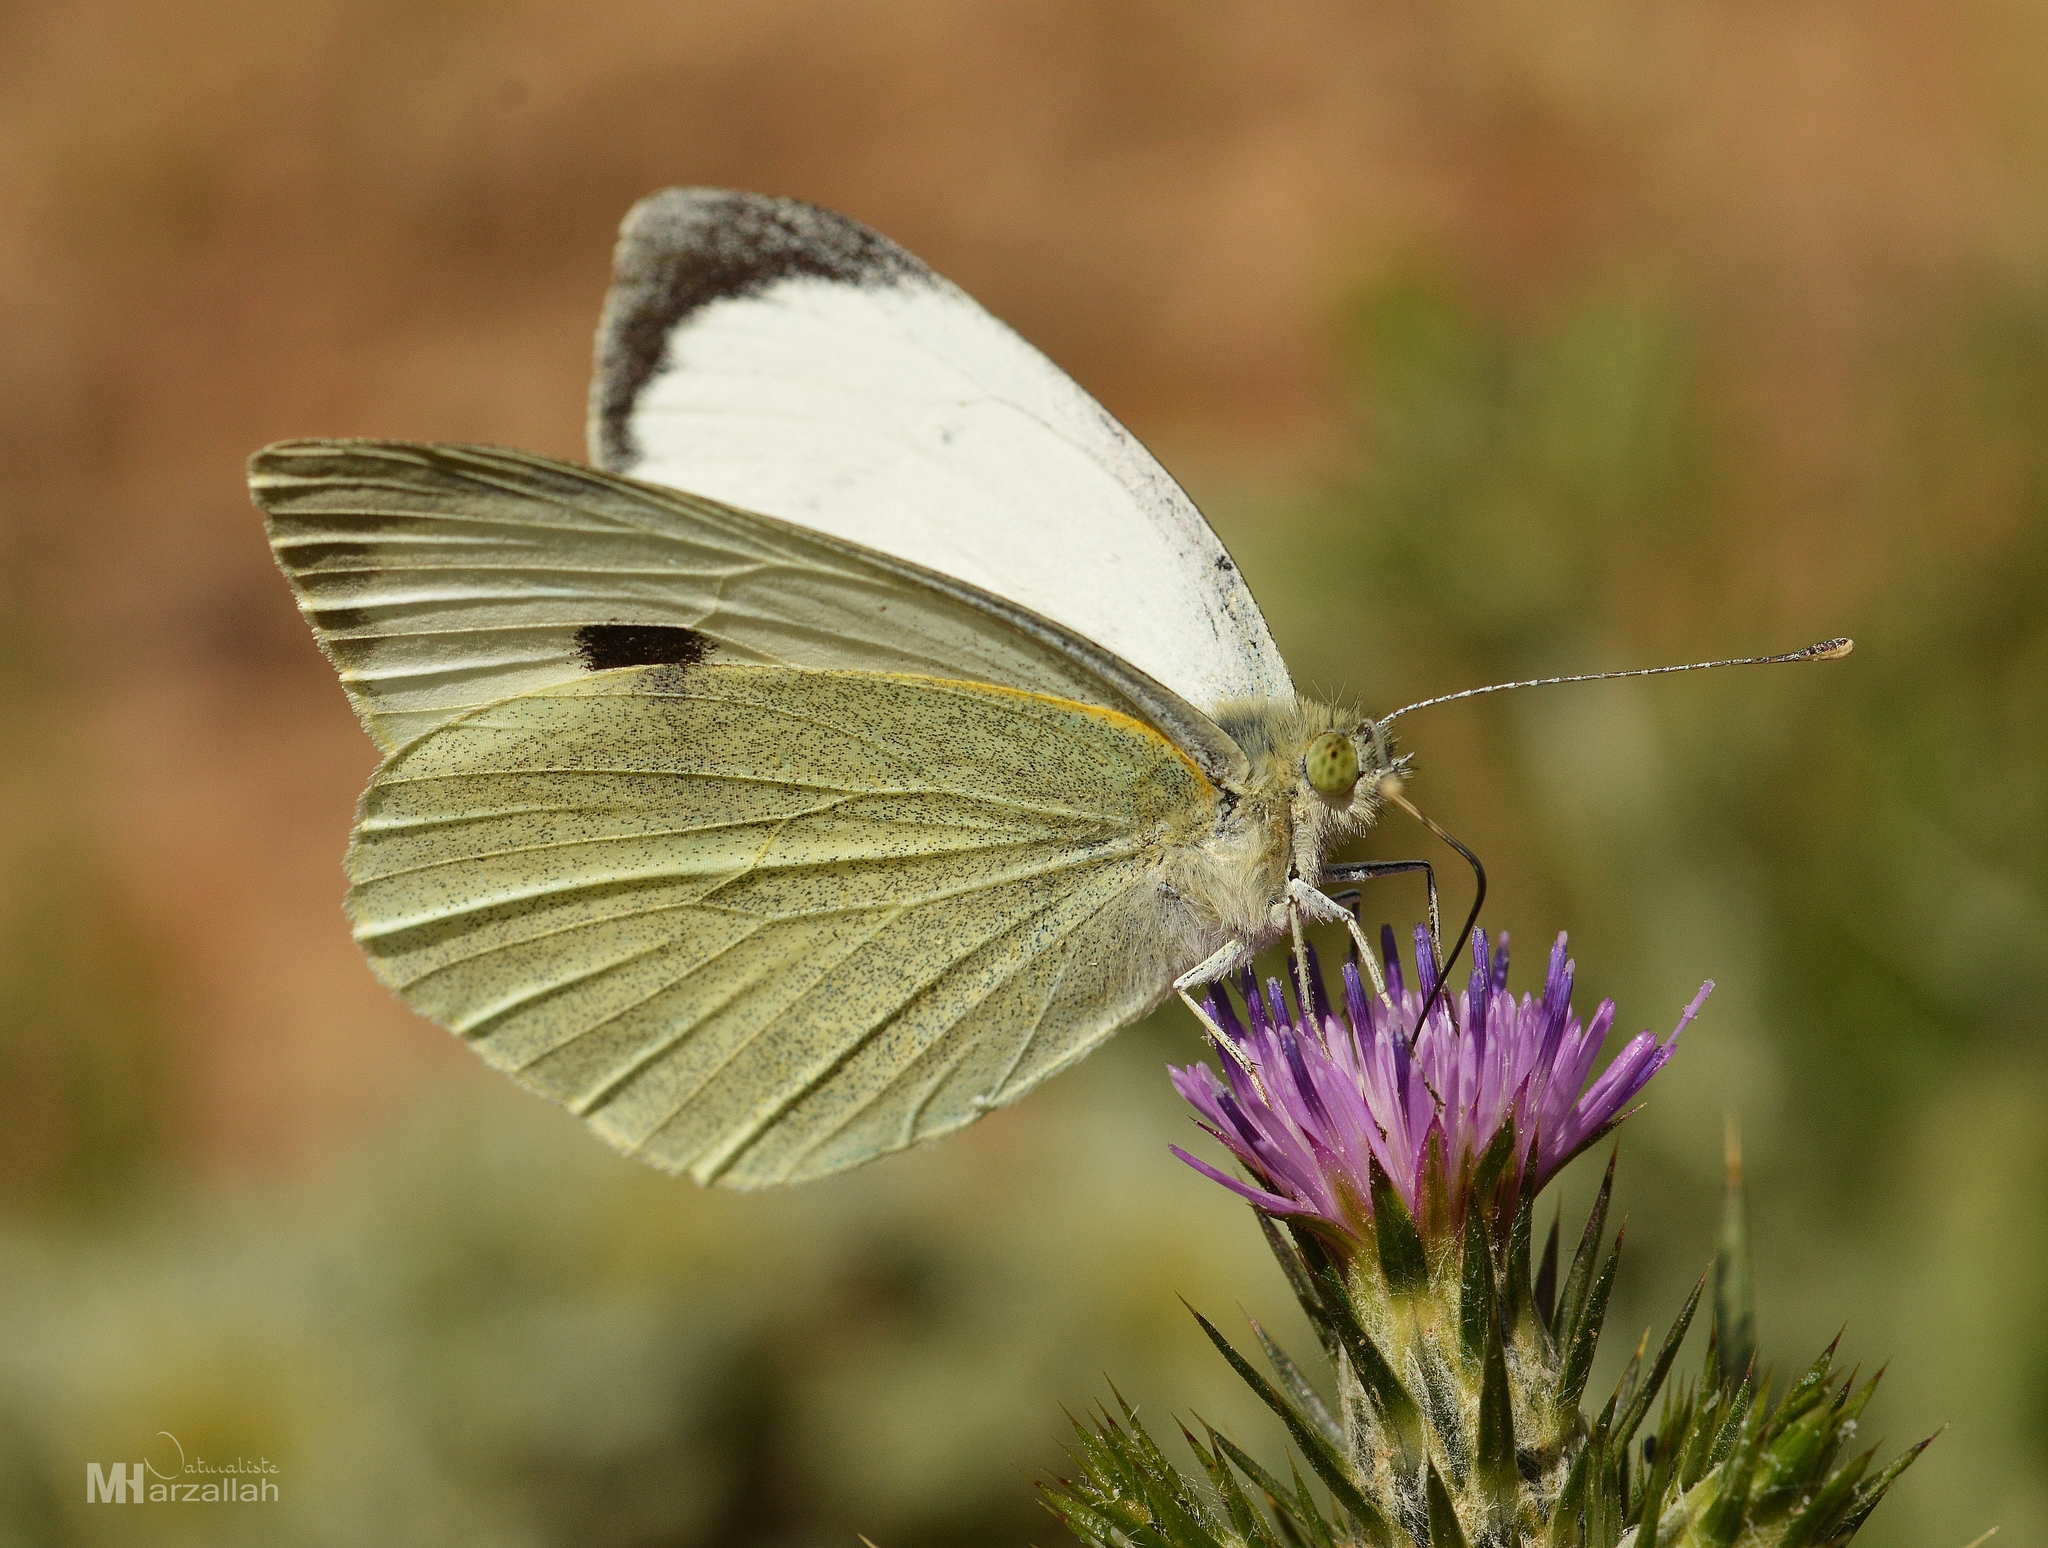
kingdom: Animalia
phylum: Arthropoda
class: Insecta
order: Lepidoptera
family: Pieridae
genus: Pieris
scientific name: Pieris brassicae
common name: Large white
